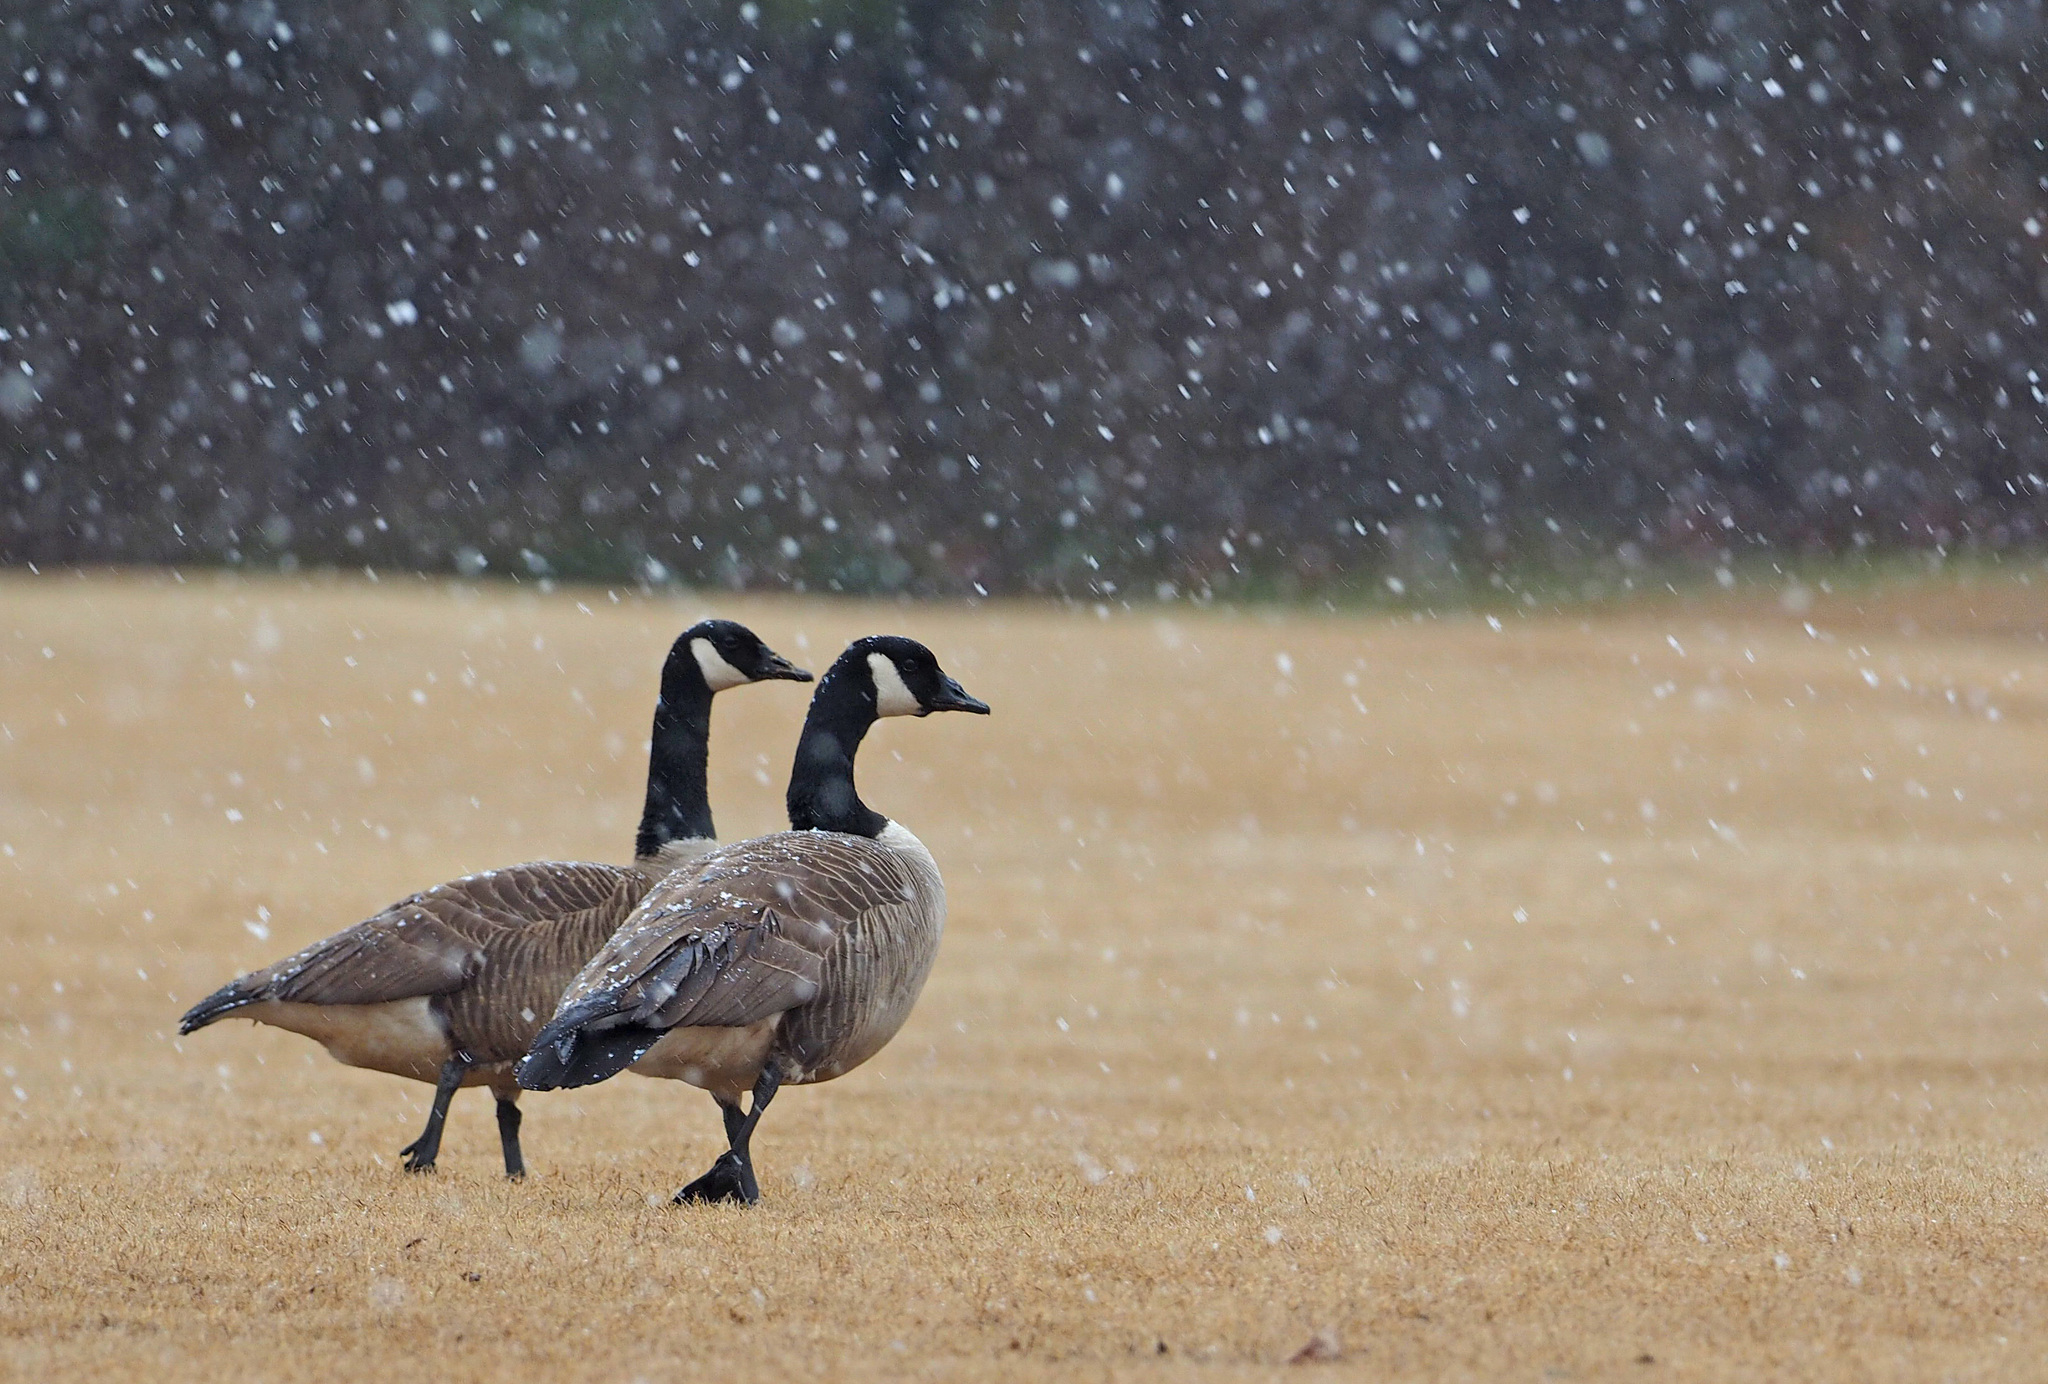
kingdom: Animalia
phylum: Chordata
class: Aves
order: Anseriformes
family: Anatidae
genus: Branta
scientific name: Branta canadensis
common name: Canada goose
